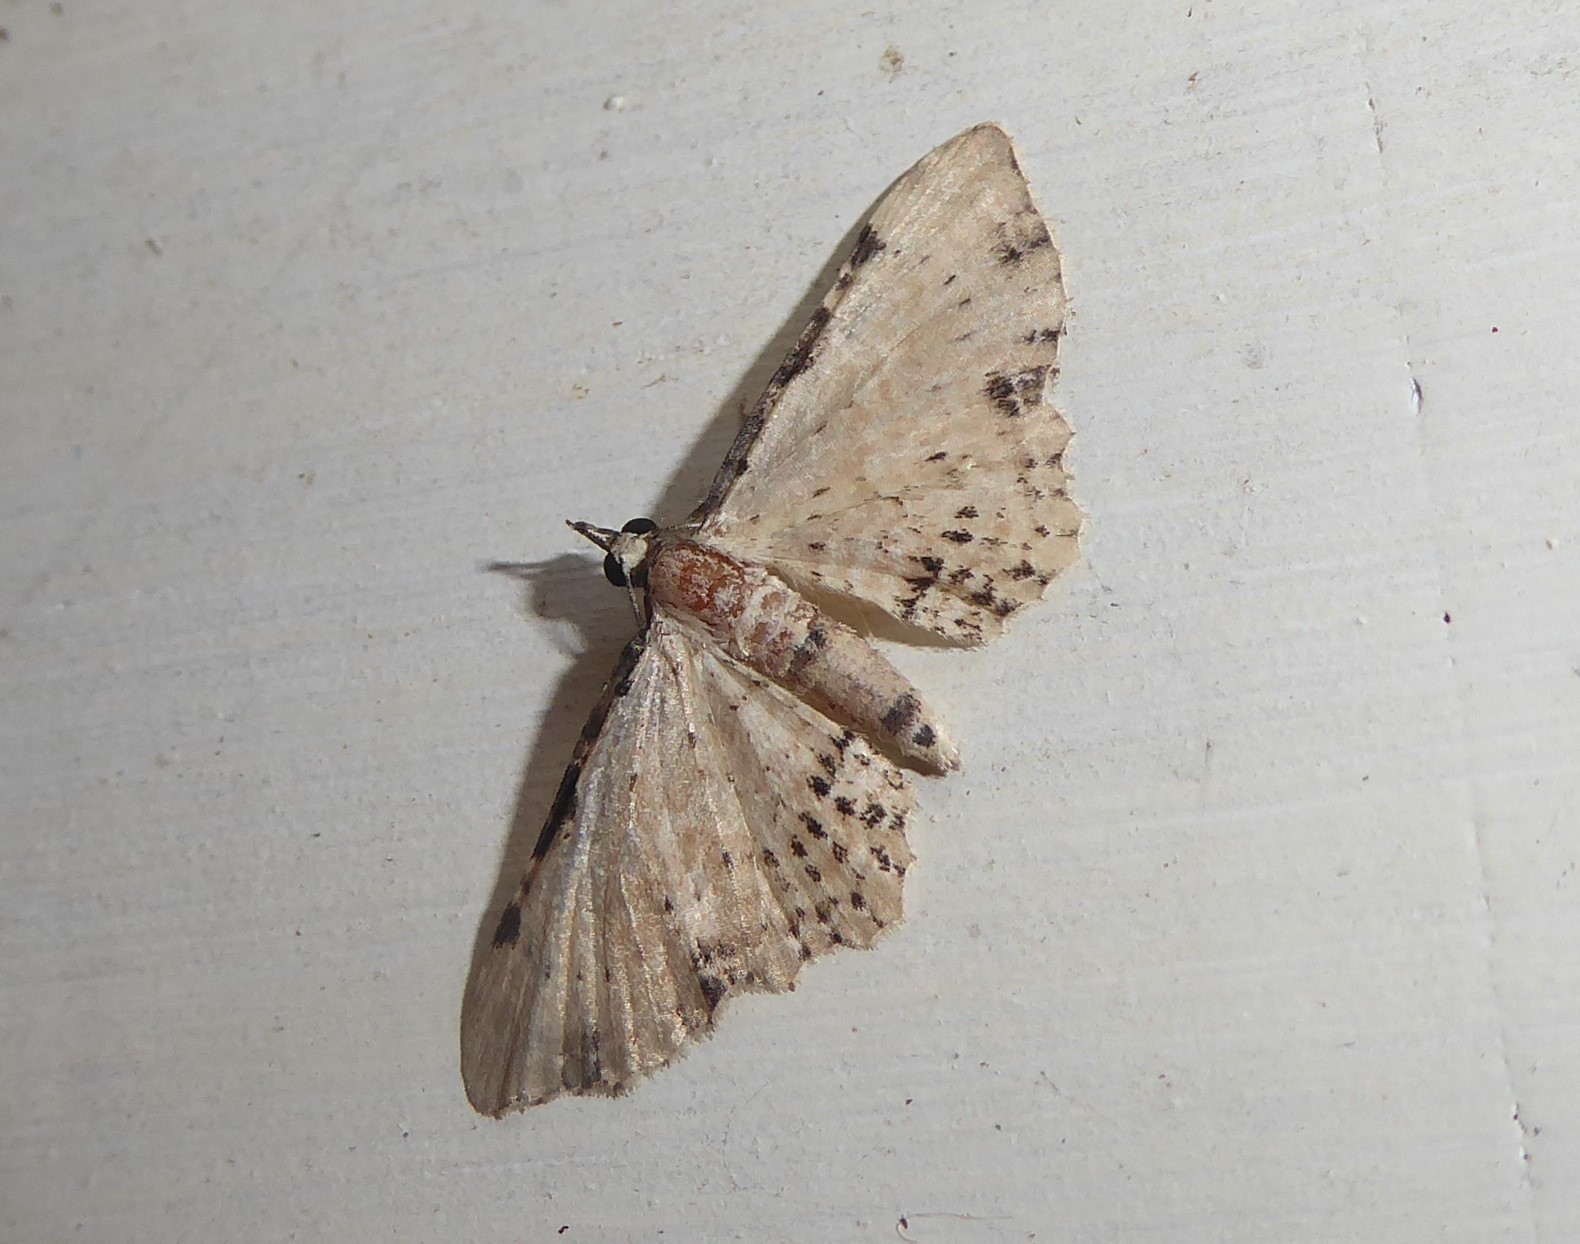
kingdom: Animalia
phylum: Arthropoda
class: Insecta
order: Lepidoptera
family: Geometridae
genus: Pasiphila
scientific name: Pasiphila fumipalpata
